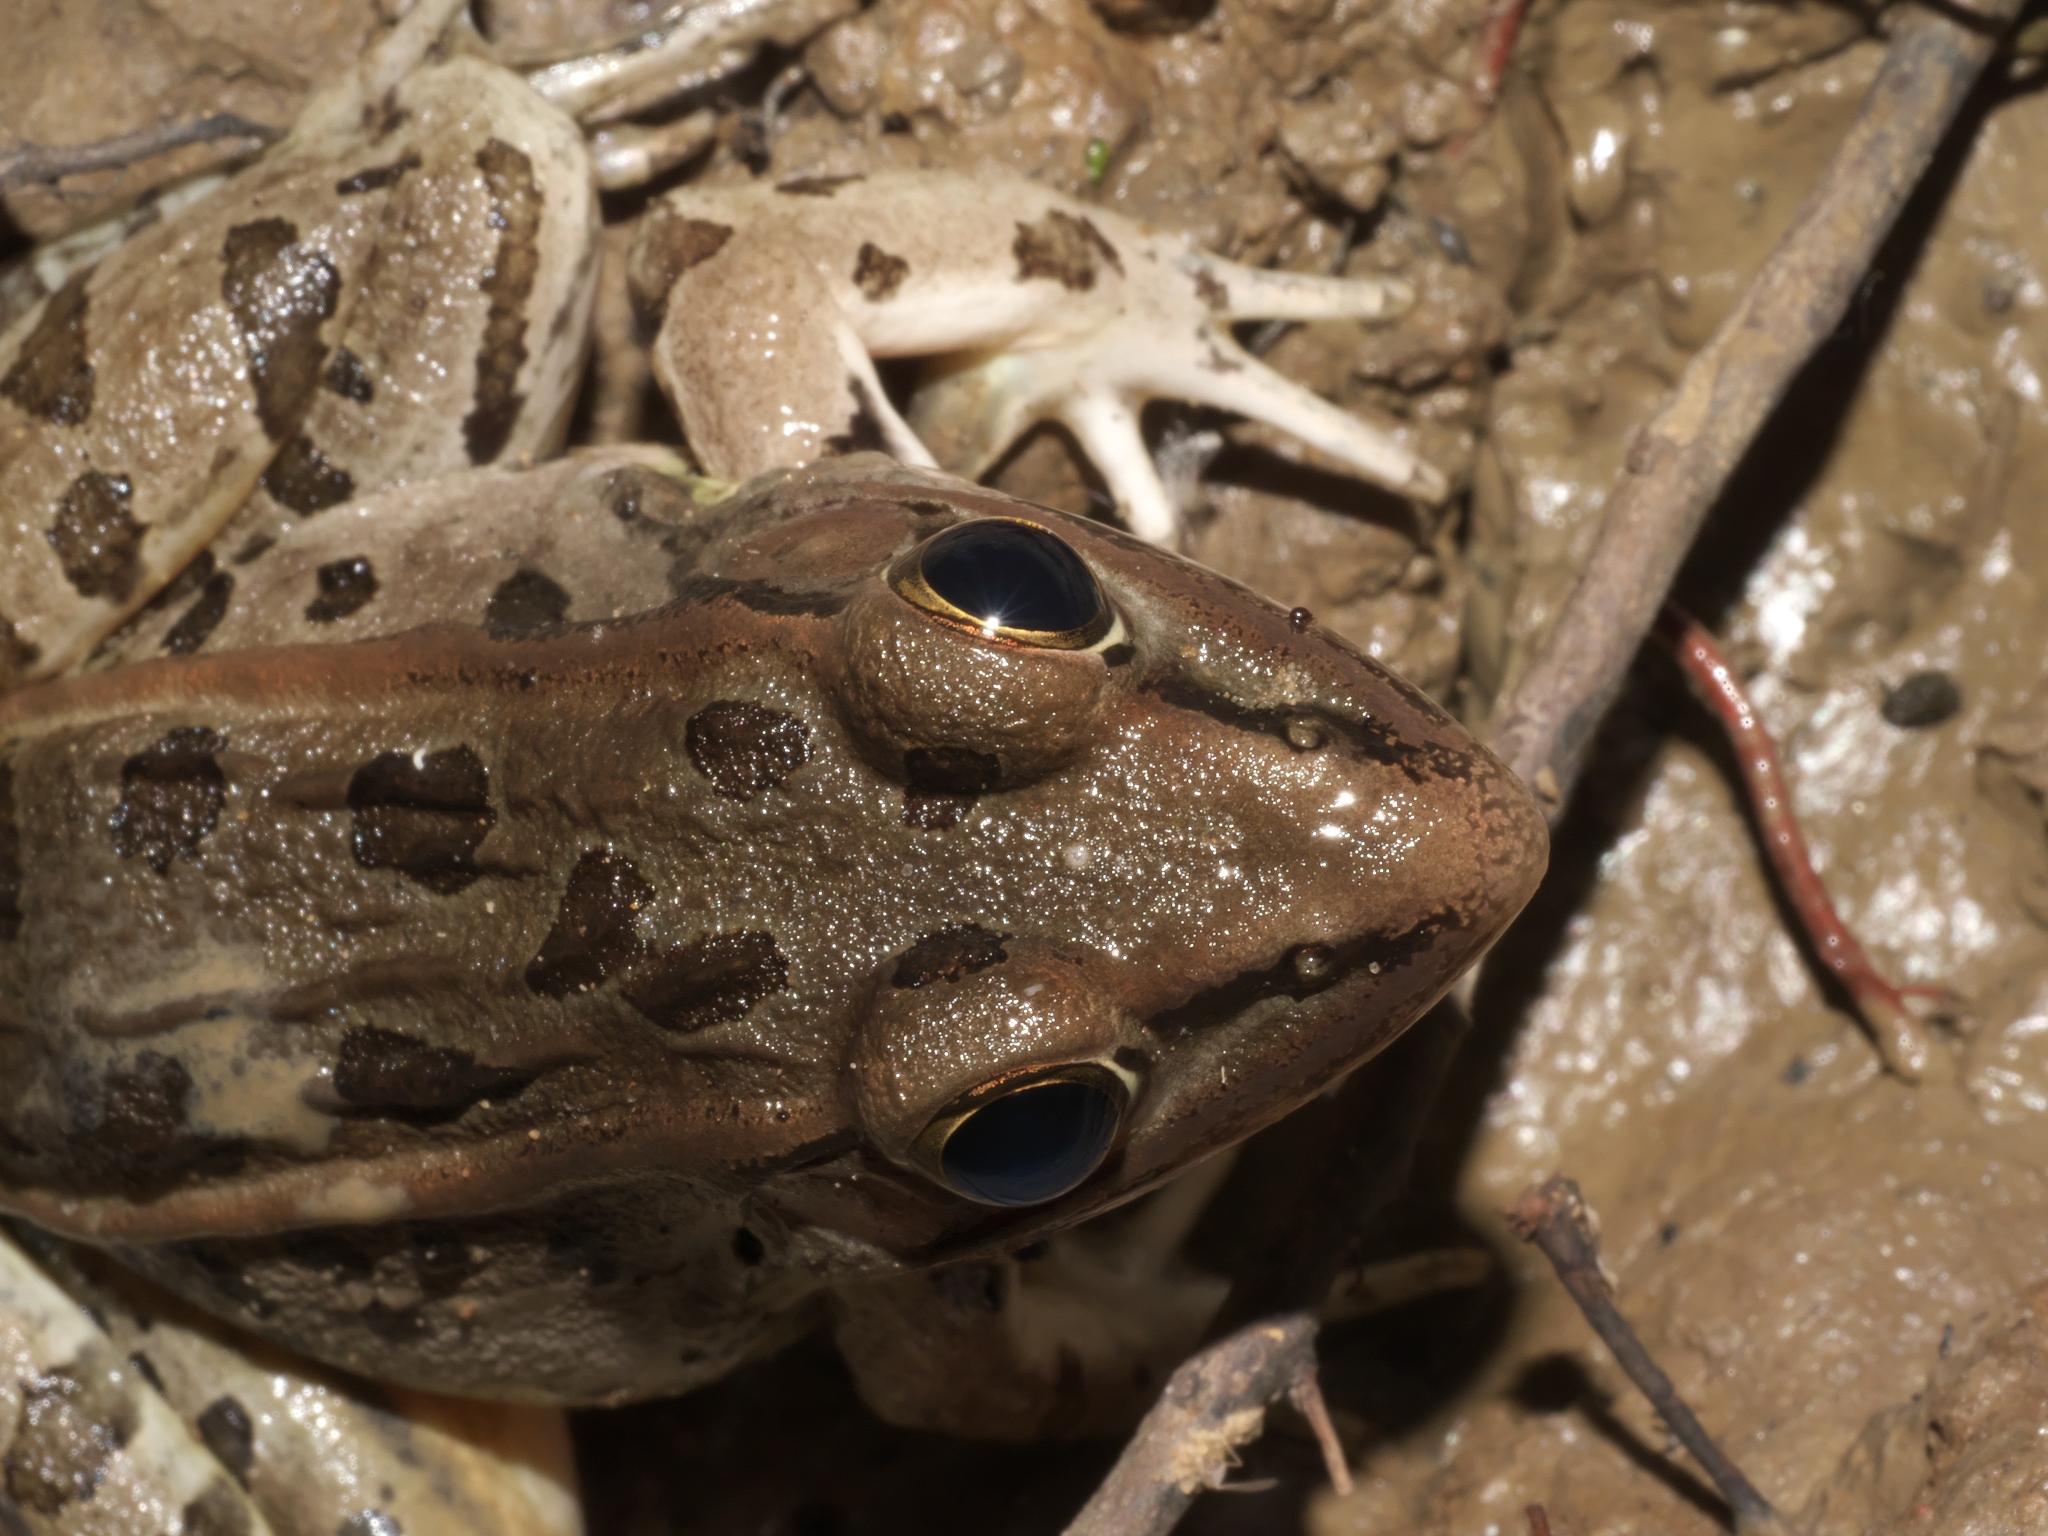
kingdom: Animalia
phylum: Chordata
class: Amphibia
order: Anura
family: Ranidae
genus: Lithobates
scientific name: Lithobates sphenocephalus
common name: Southern leopard frog
